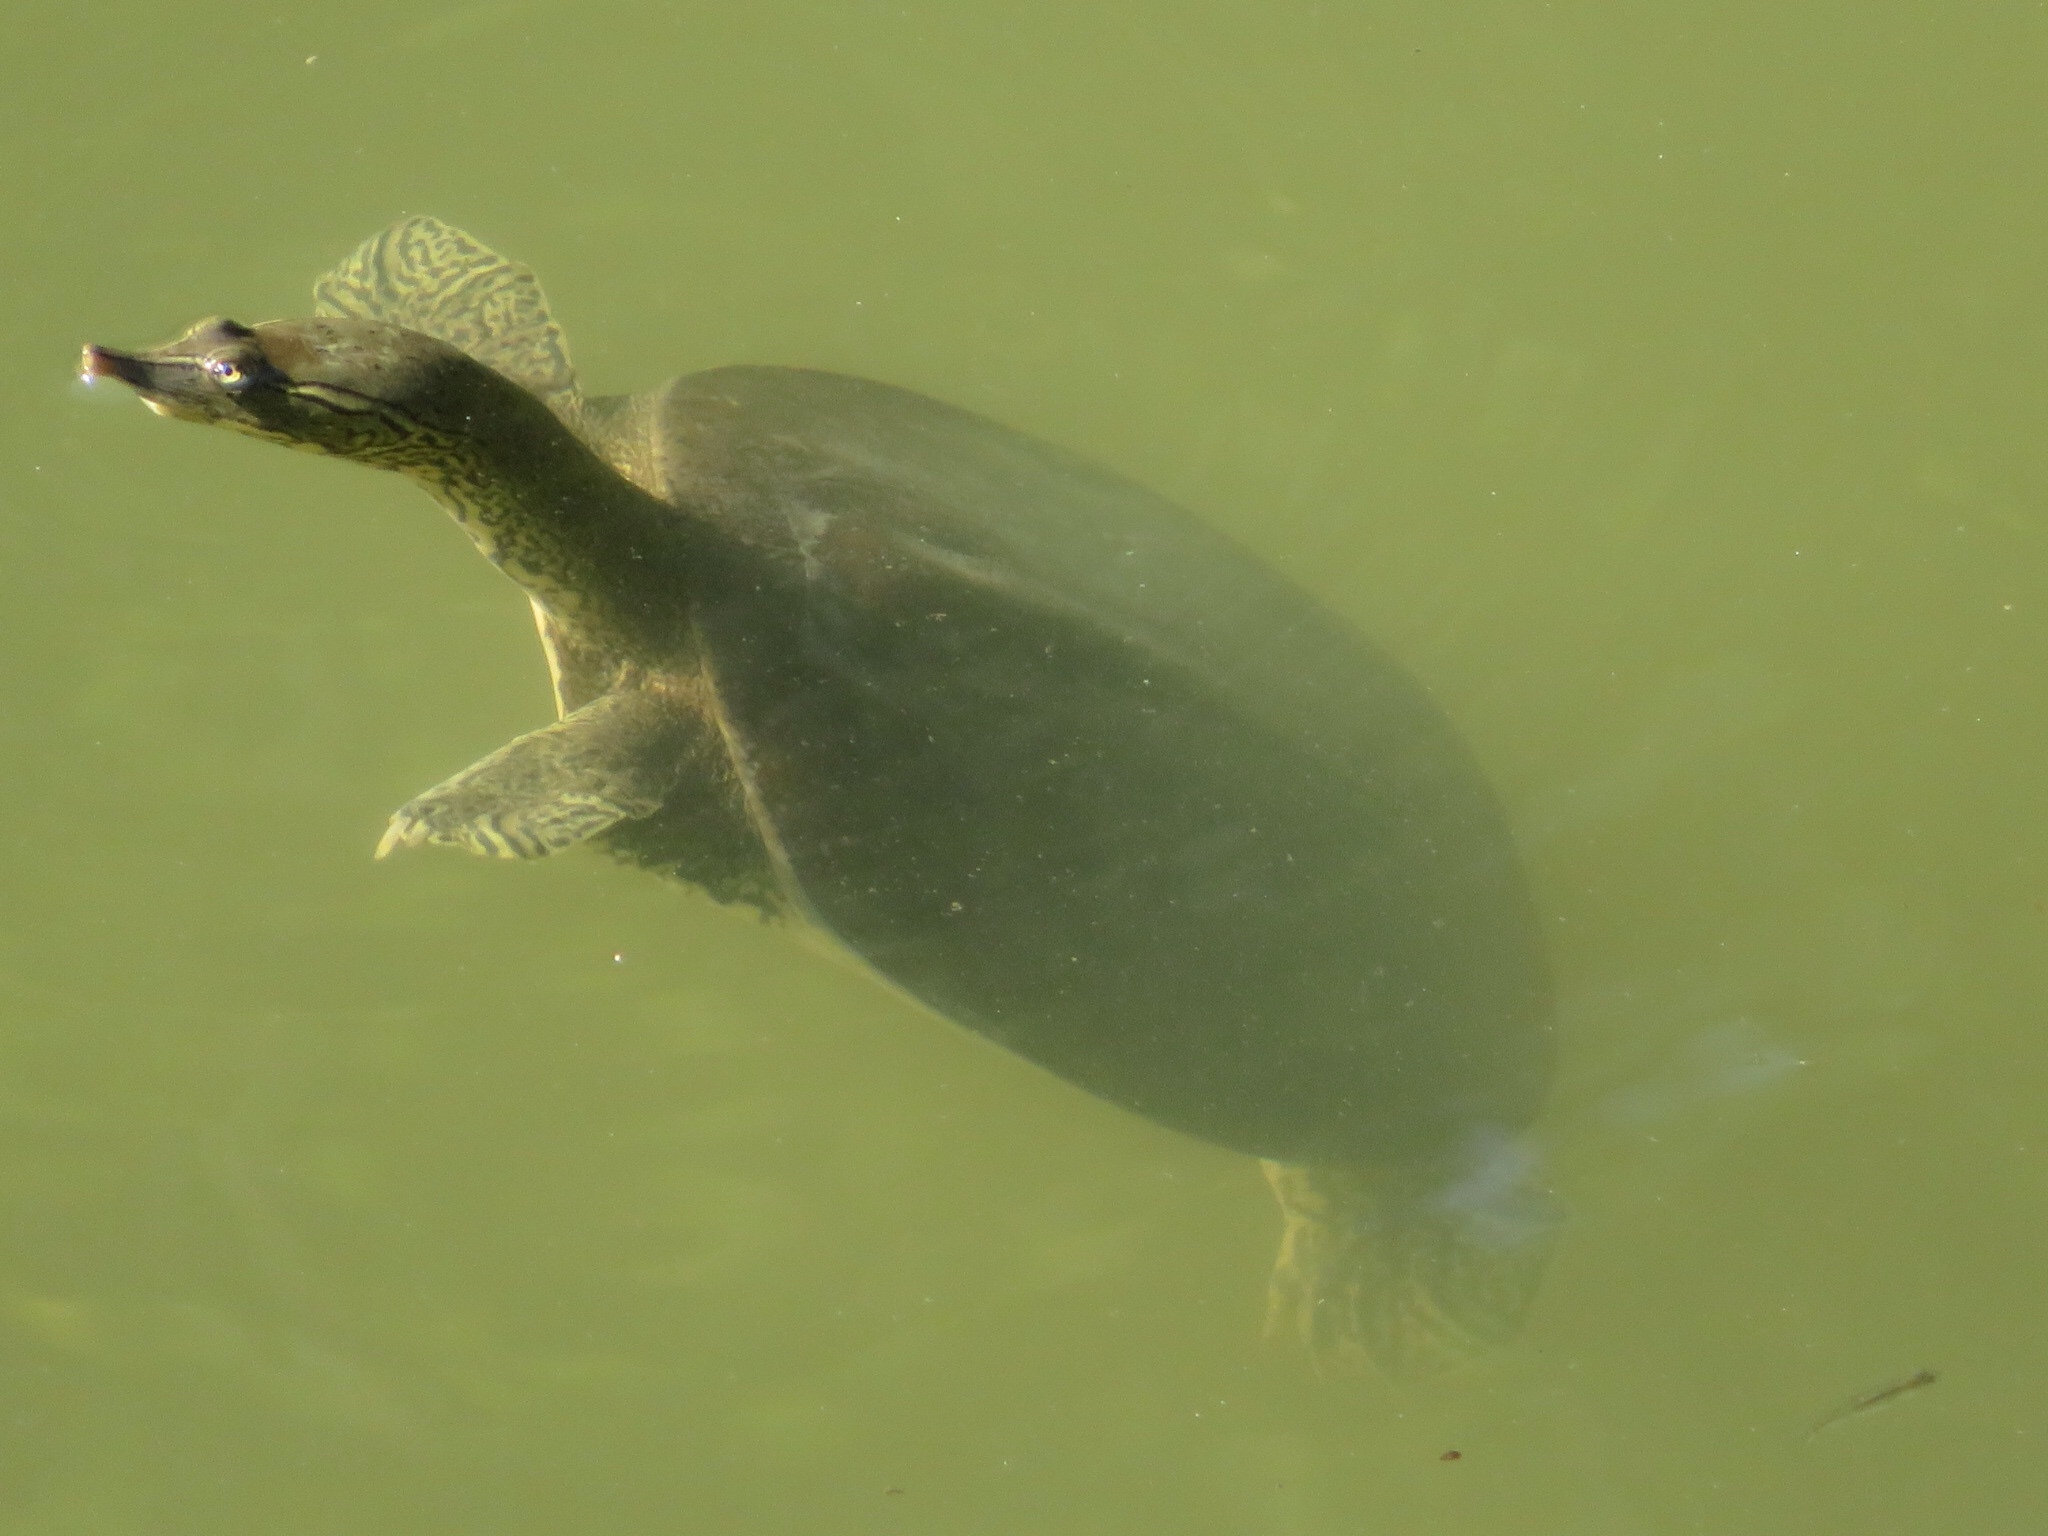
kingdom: Animalia
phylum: Chordata
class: Testudines
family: Trionychidae
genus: Apalone
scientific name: Apalone spinifera
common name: Spiny softshell turtle
